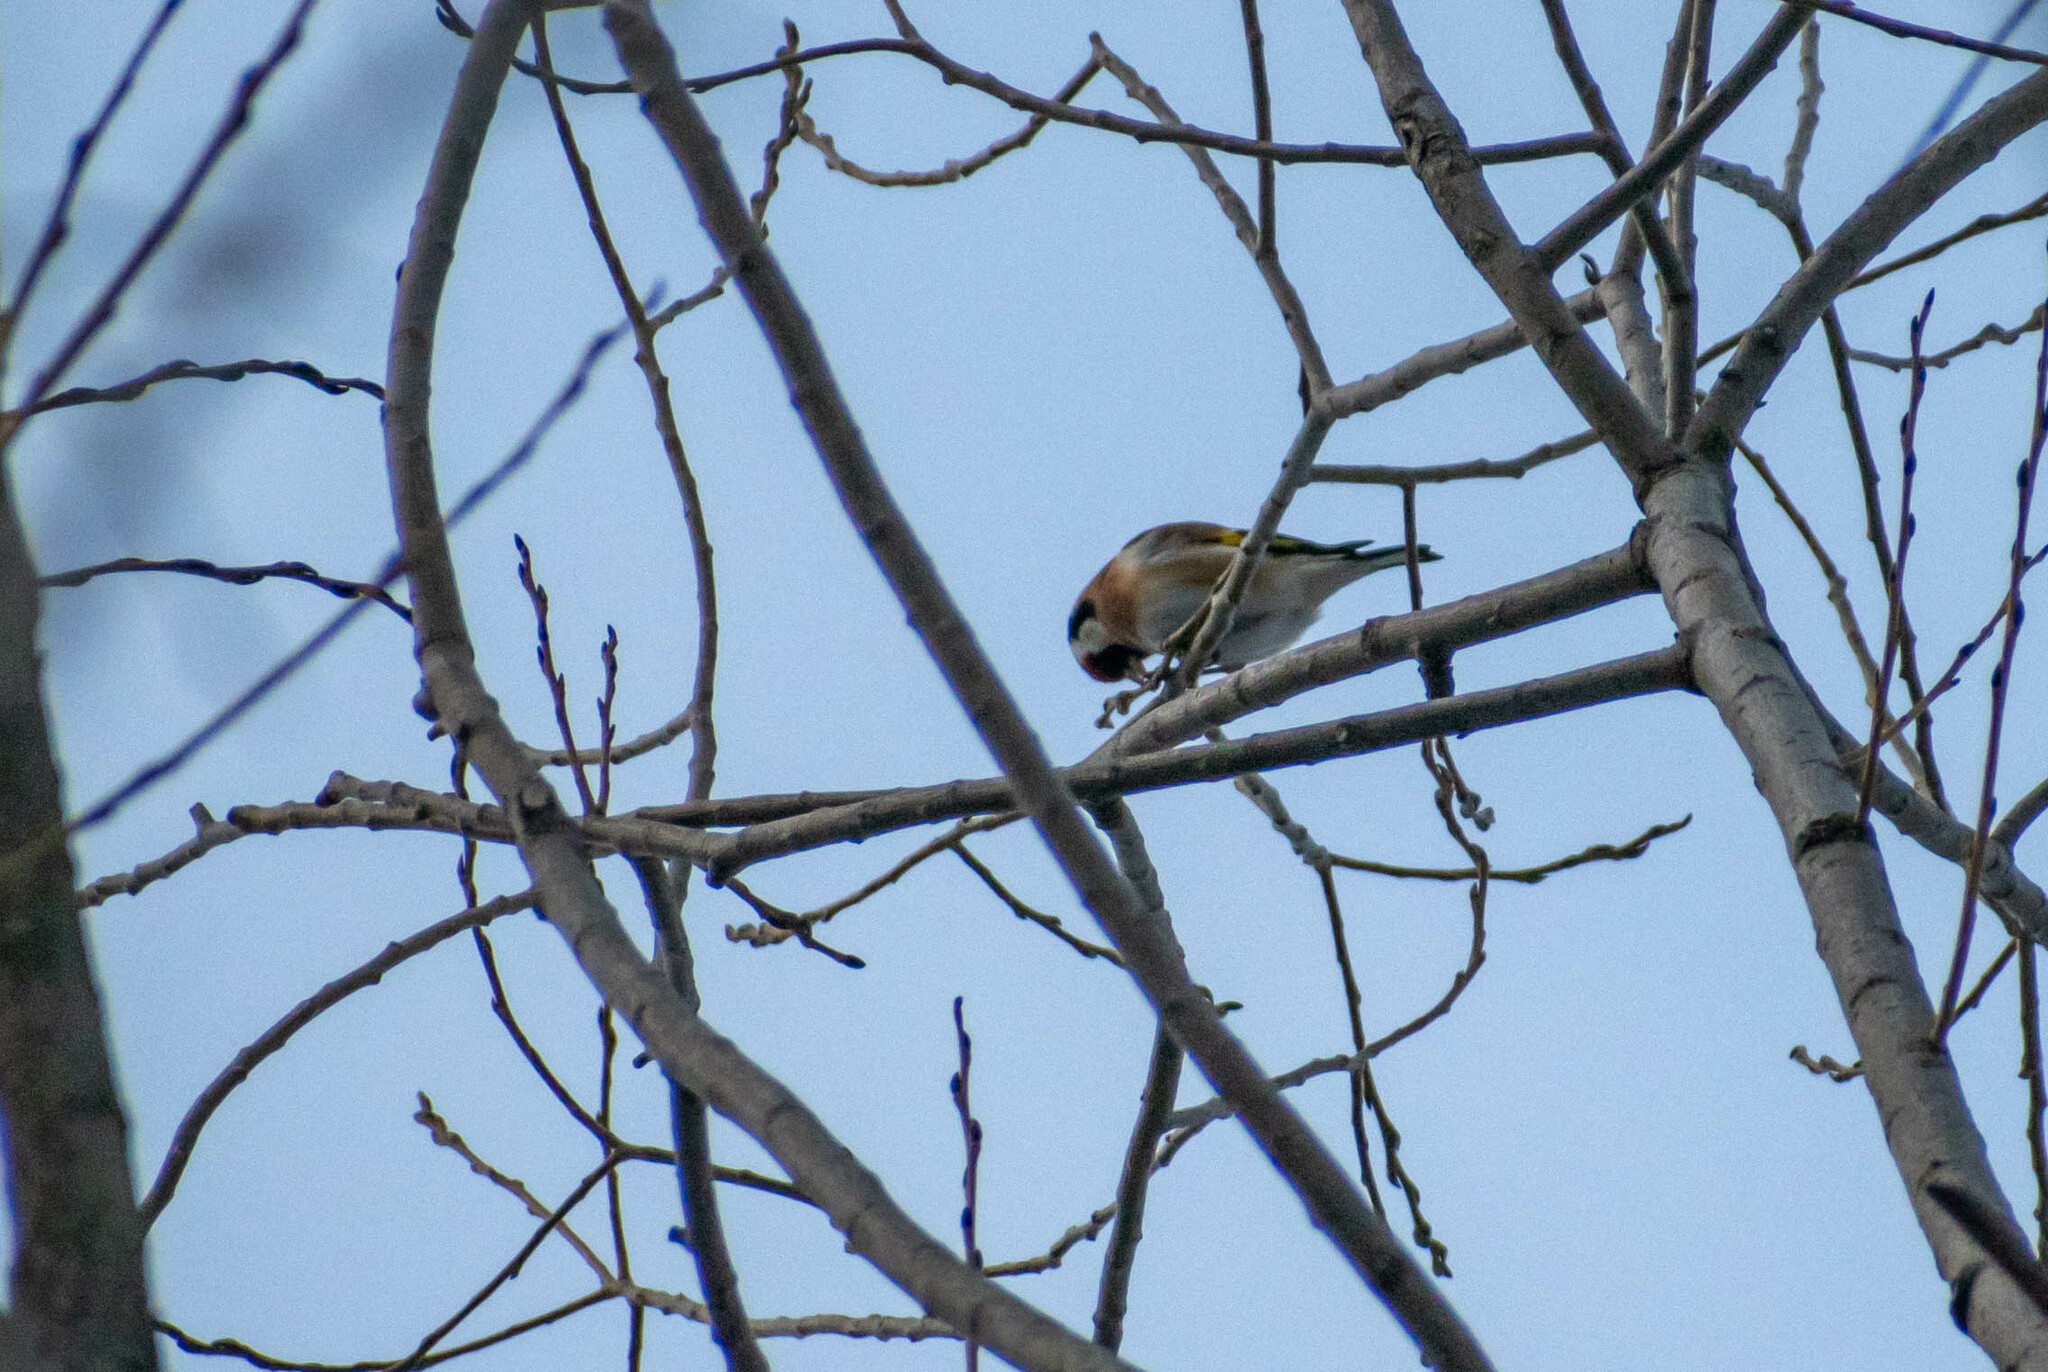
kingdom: Animalia
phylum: Chordata
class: Aves
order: Passeriformes
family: Fringillidae
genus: Carduelis
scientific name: Carduelis carduelis
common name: European goldfinch
